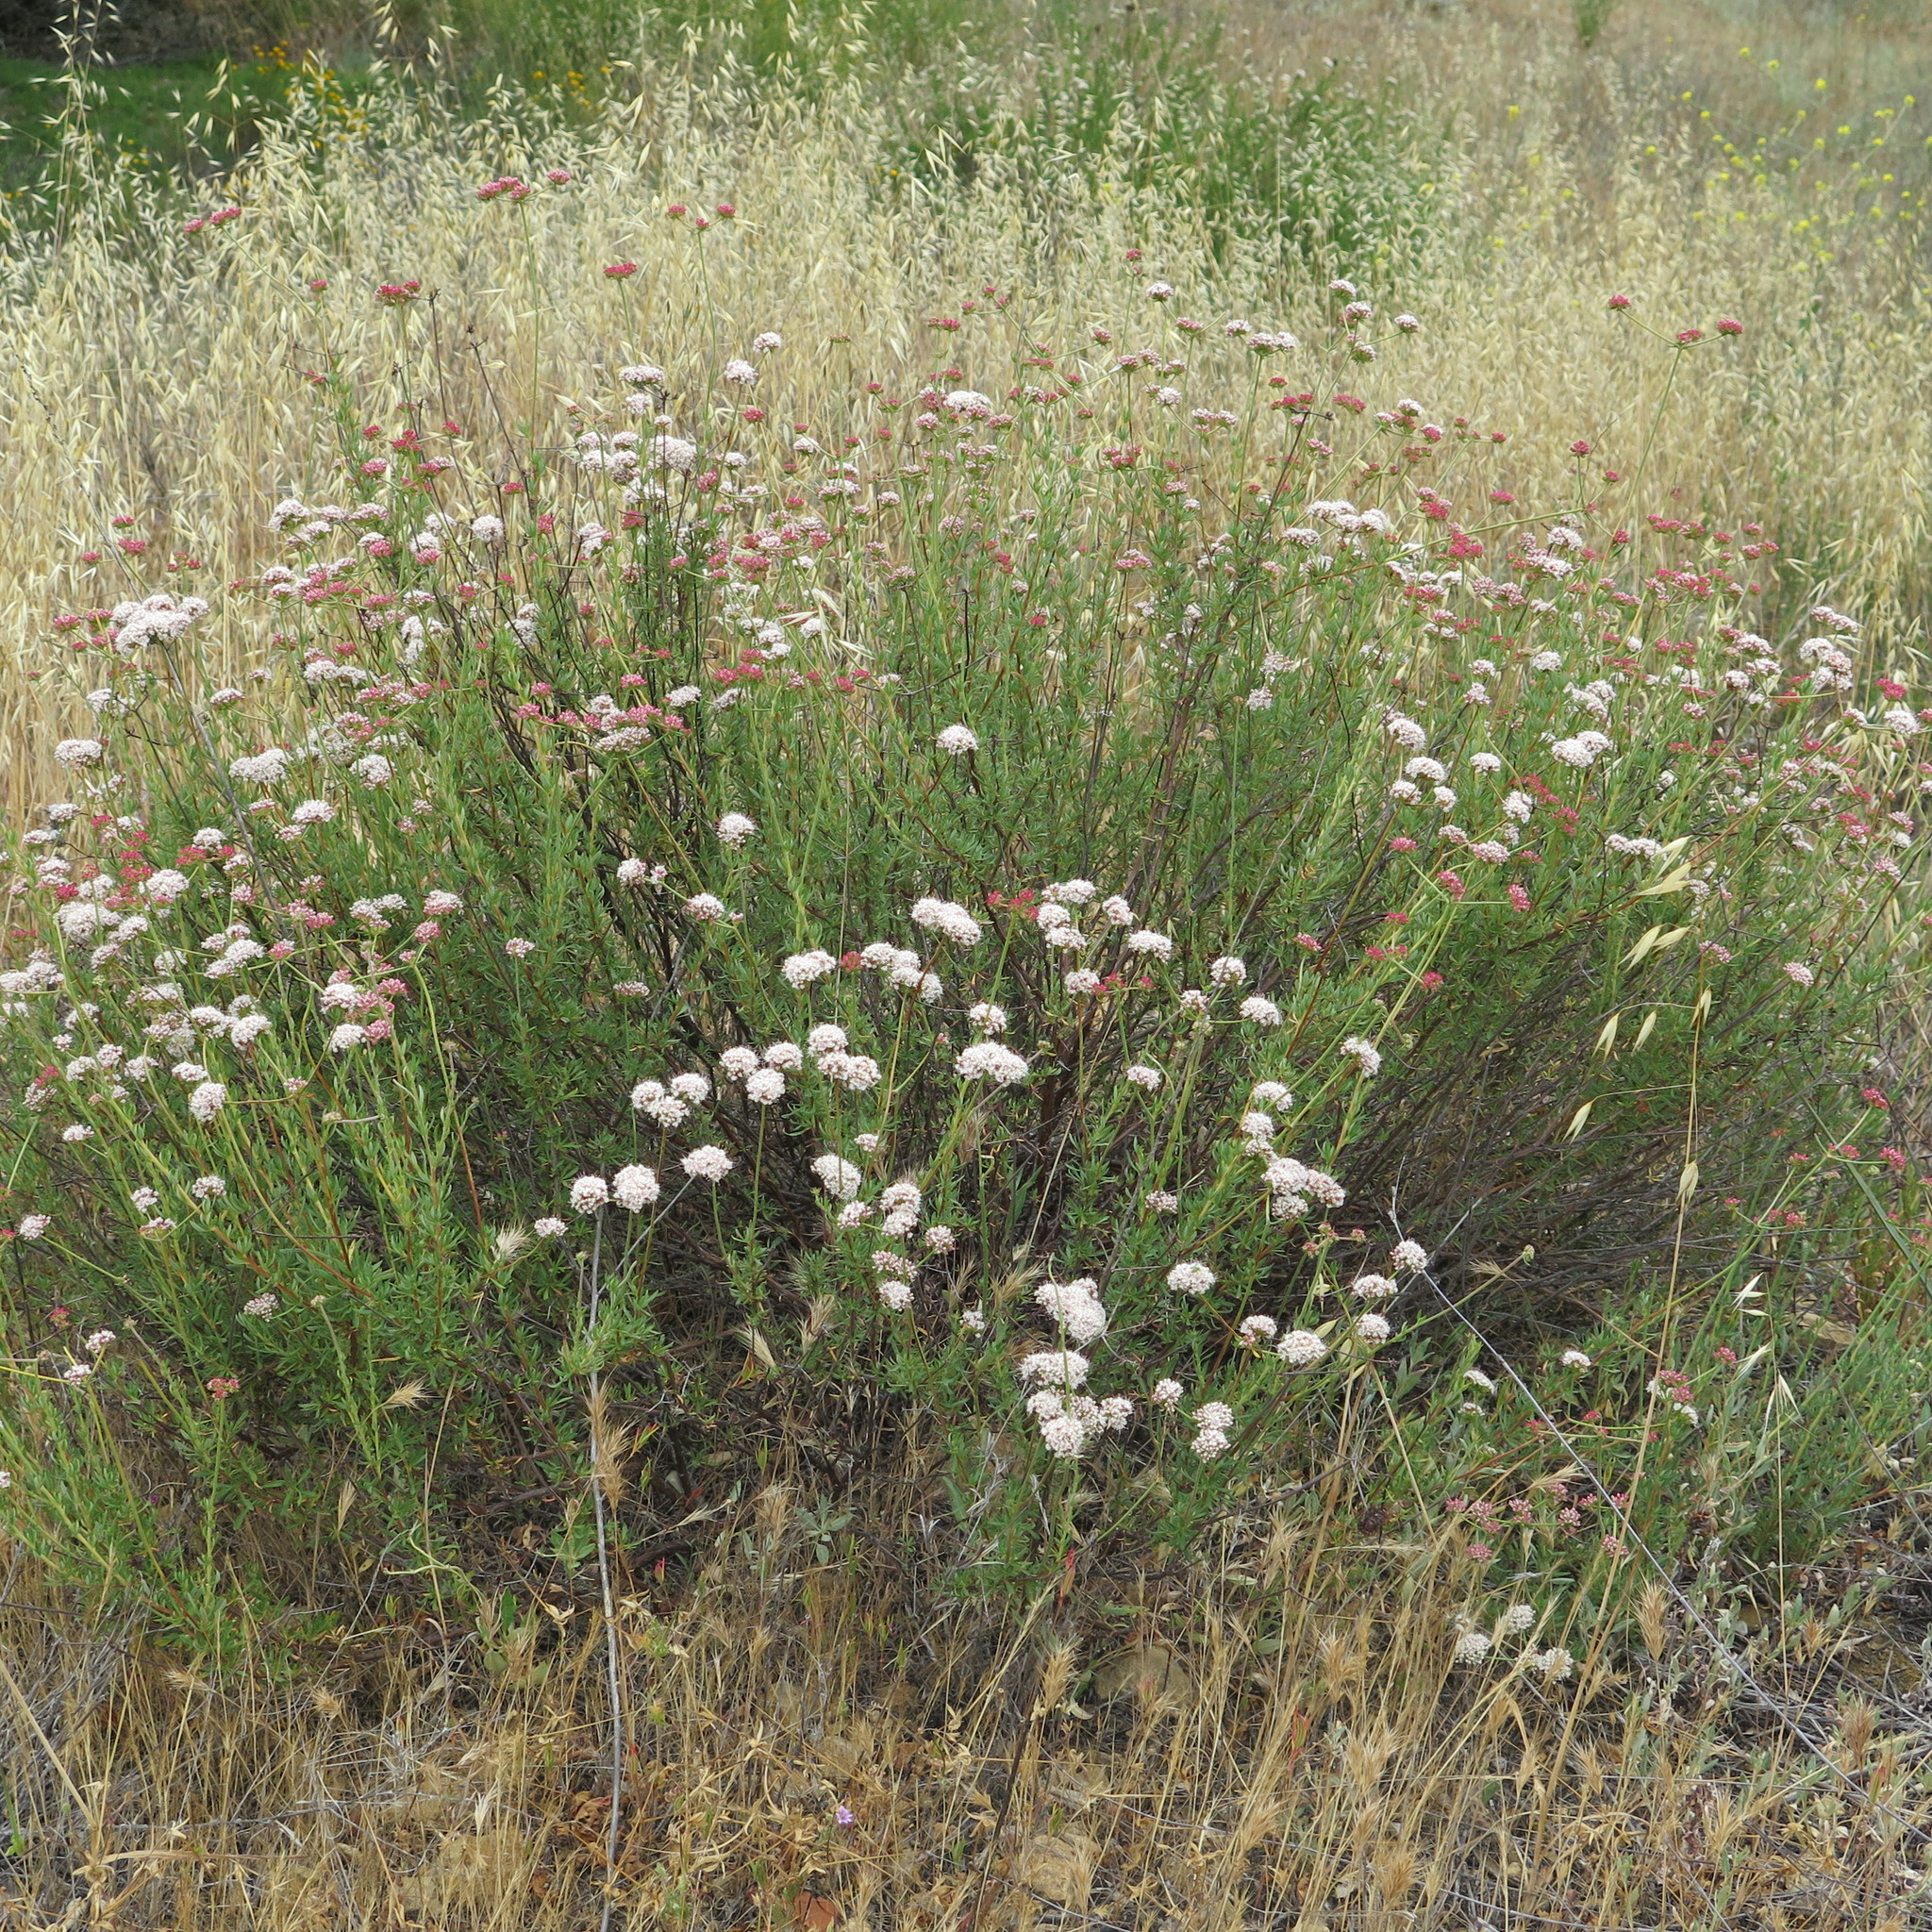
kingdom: Plantae
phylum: Tracheophyta
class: Magnoliopsida
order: Caryophyllales
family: Polygonaceae
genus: Eriogonum
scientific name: Eriogonum fasciculatum
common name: California wild buckwheat
